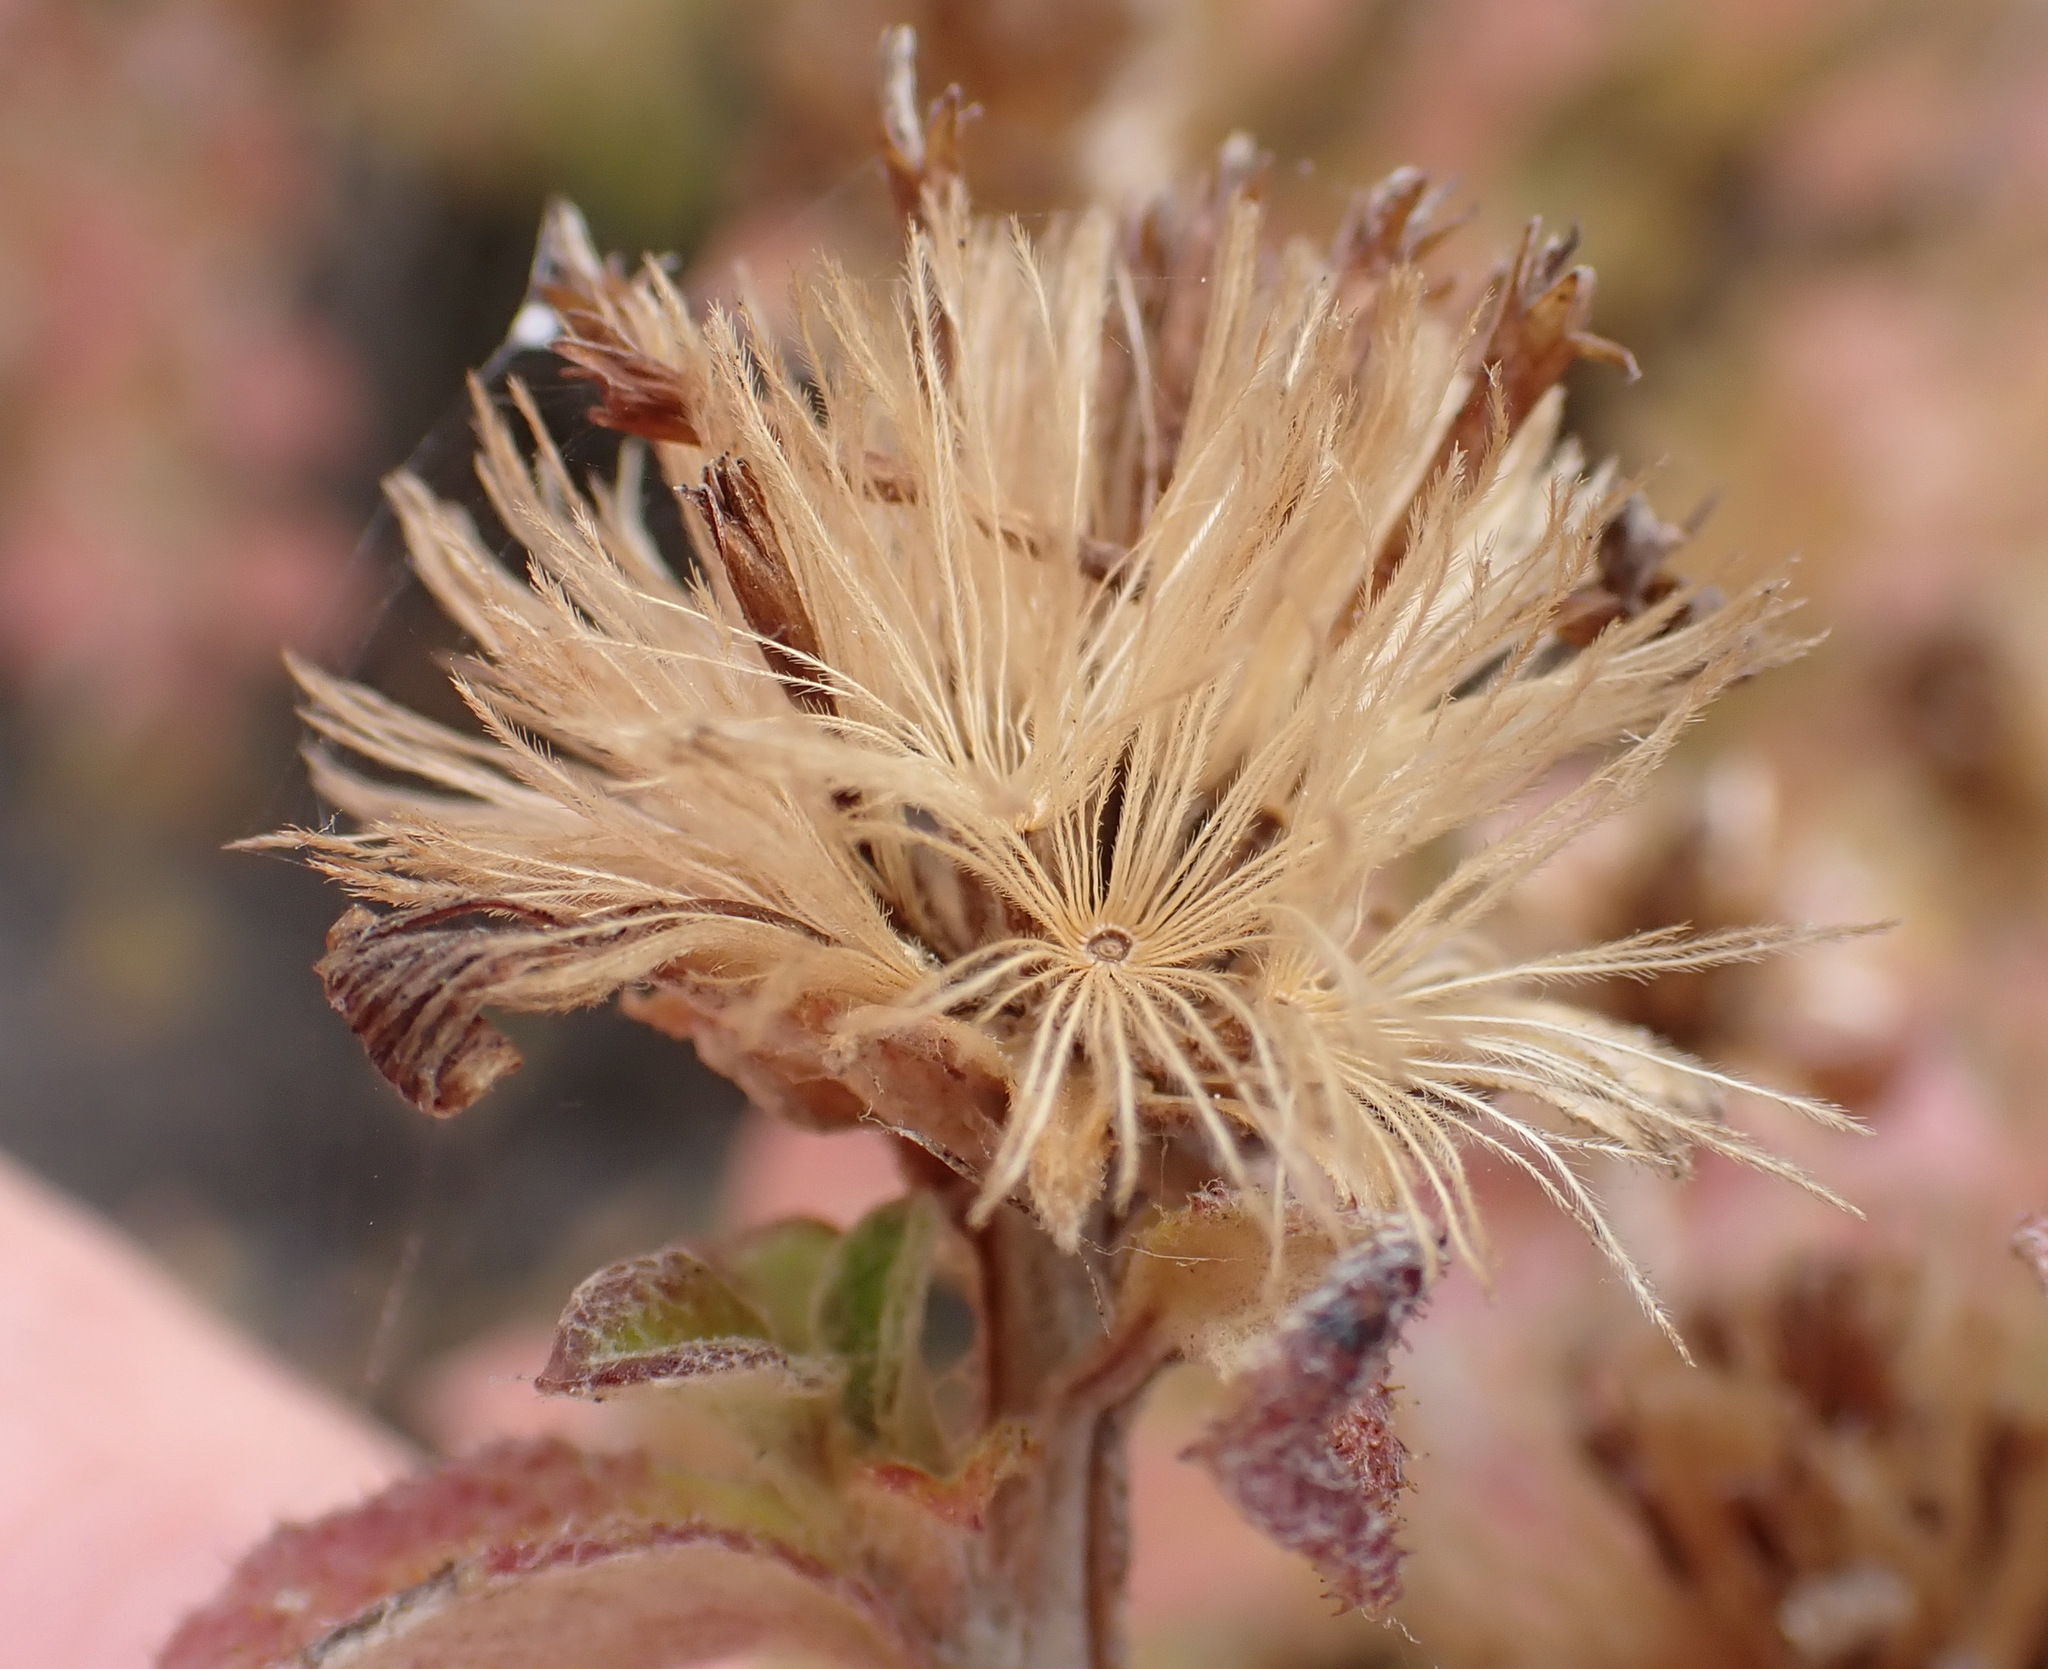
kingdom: Plantae
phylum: Tracheophyta
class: Magnoliopsida
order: Asterales
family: Asteraceae
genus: Printzia
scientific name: Printzia polifolia
